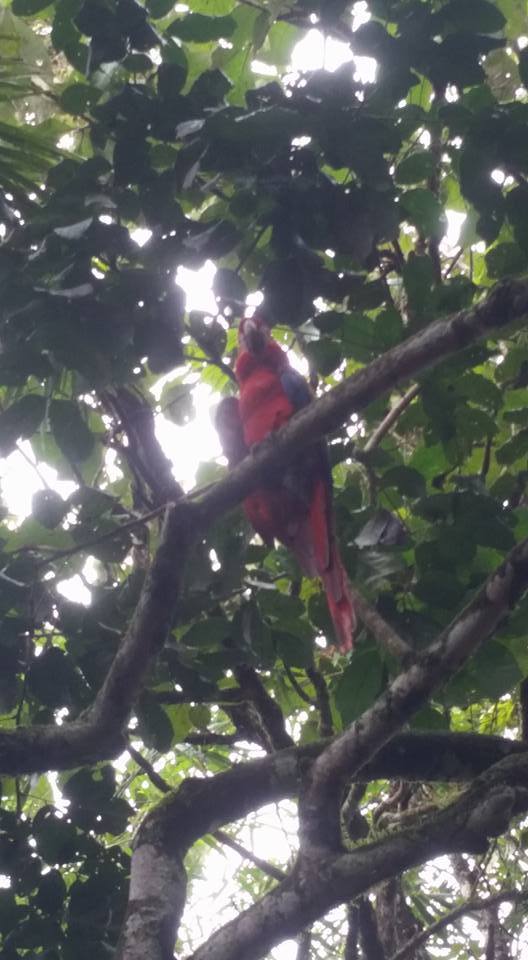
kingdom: Animalia
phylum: Chordata
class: Aves
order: Psittaciformes
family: Psittacidae
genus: Ara
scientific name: Ara macao
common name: Scarlet macaw
